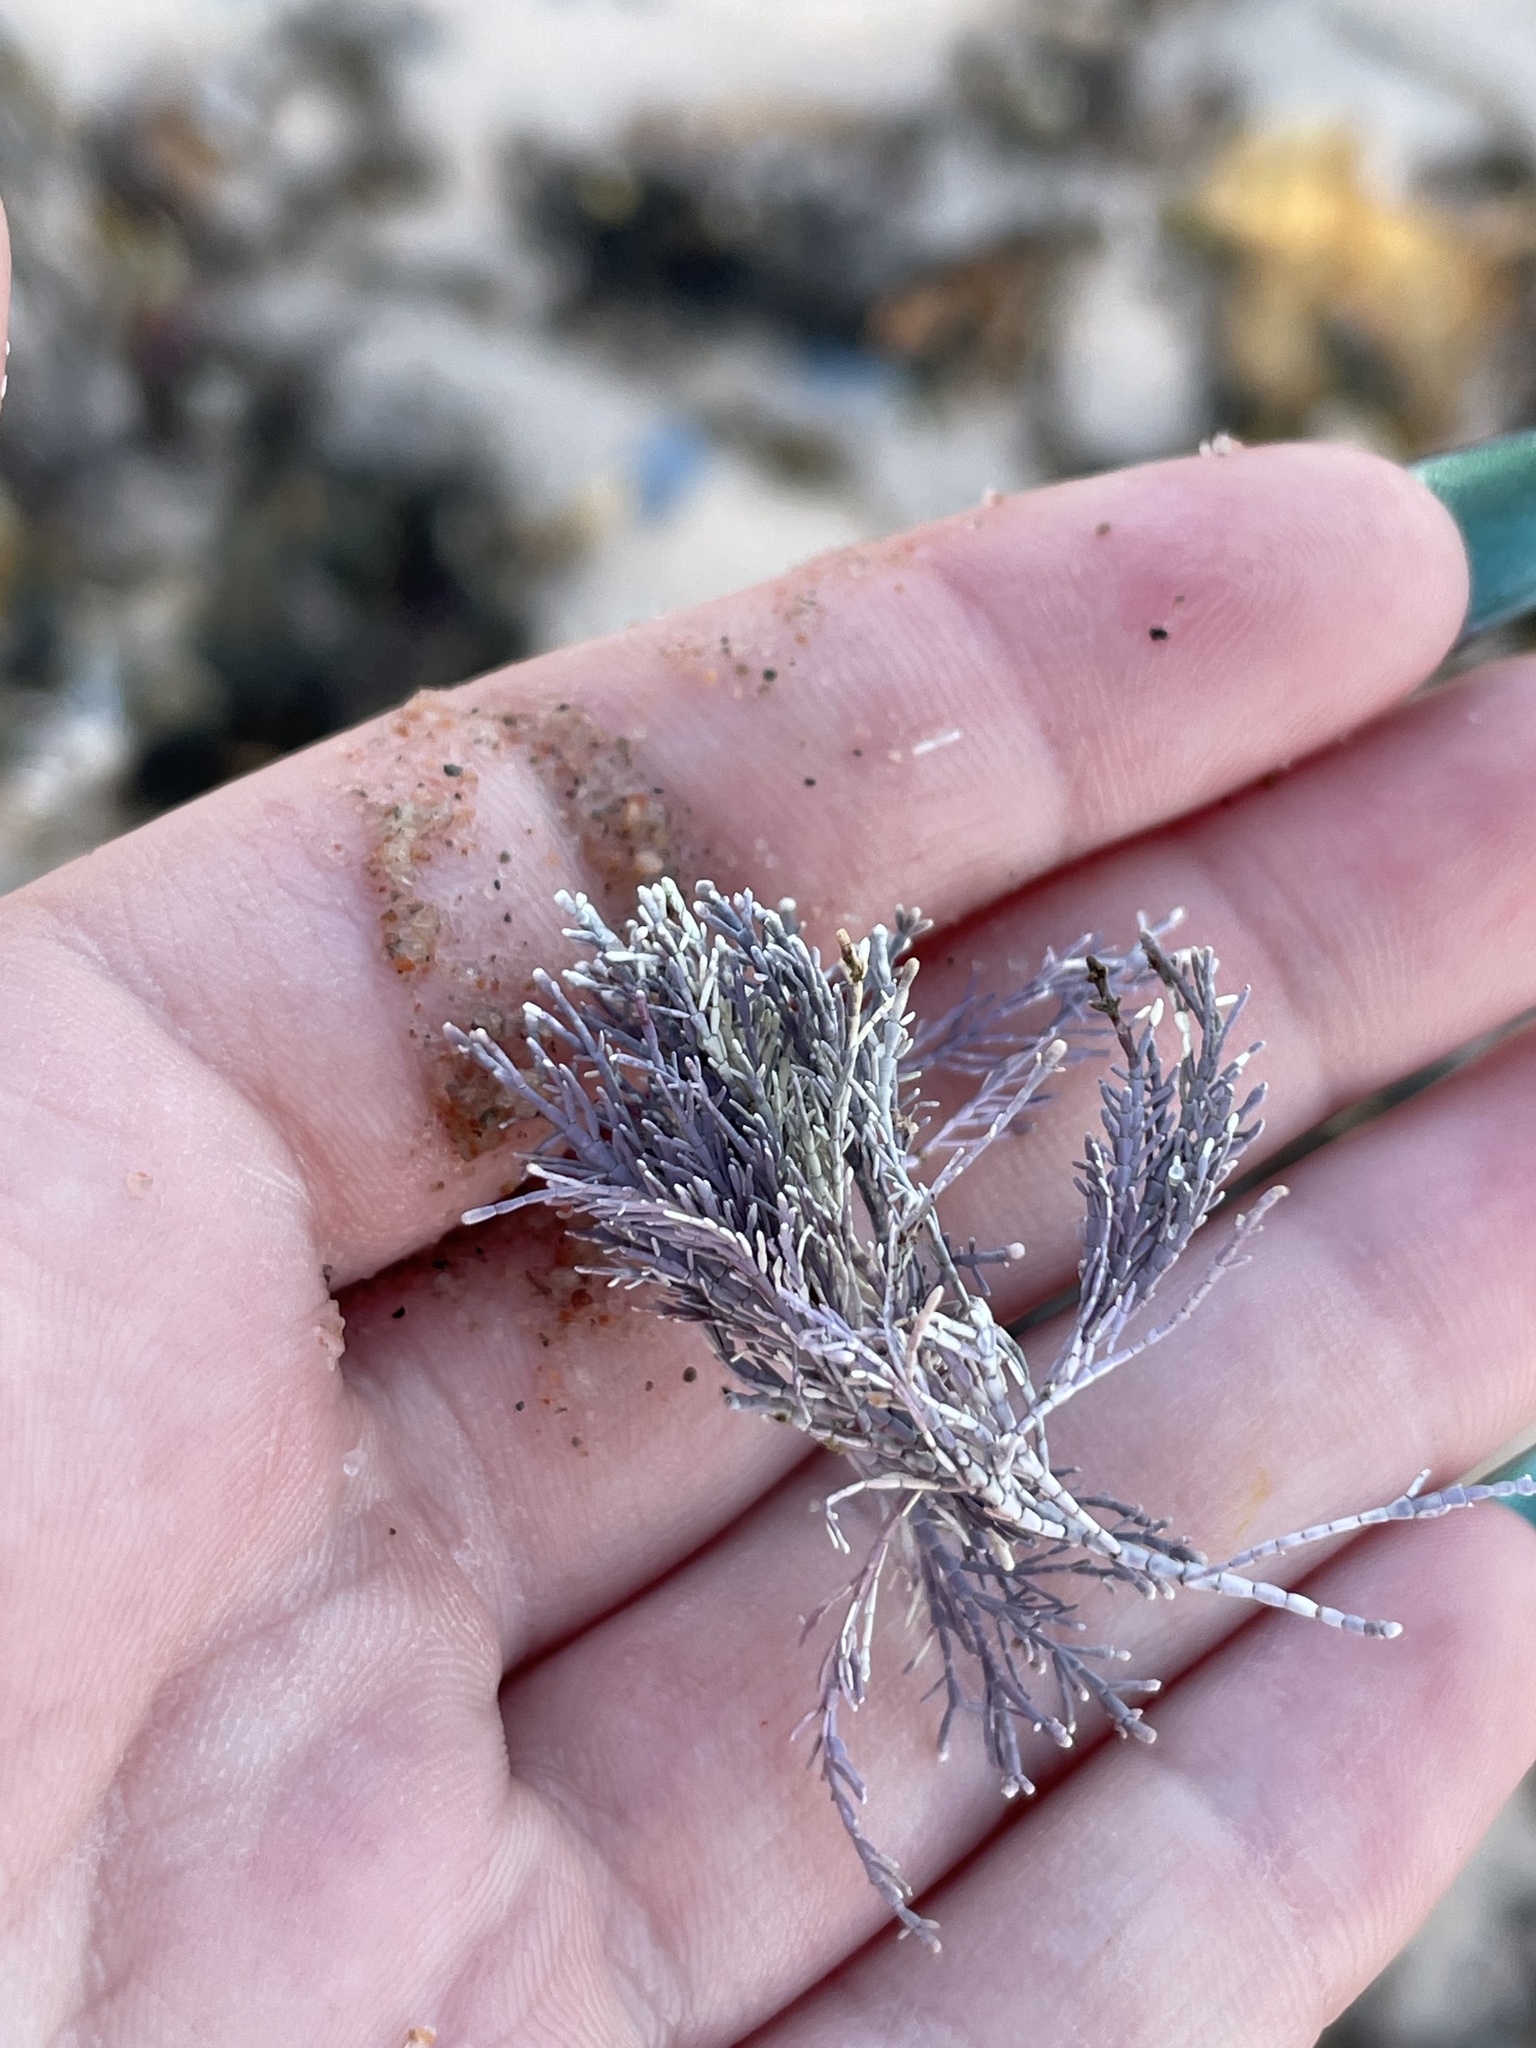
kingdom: Plantae
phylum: Rhodophyta
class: Florideophyceae
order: Corallinales
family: Corallinaceae
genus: Corallina
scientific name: Corallina officinalis
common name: Coral weed
